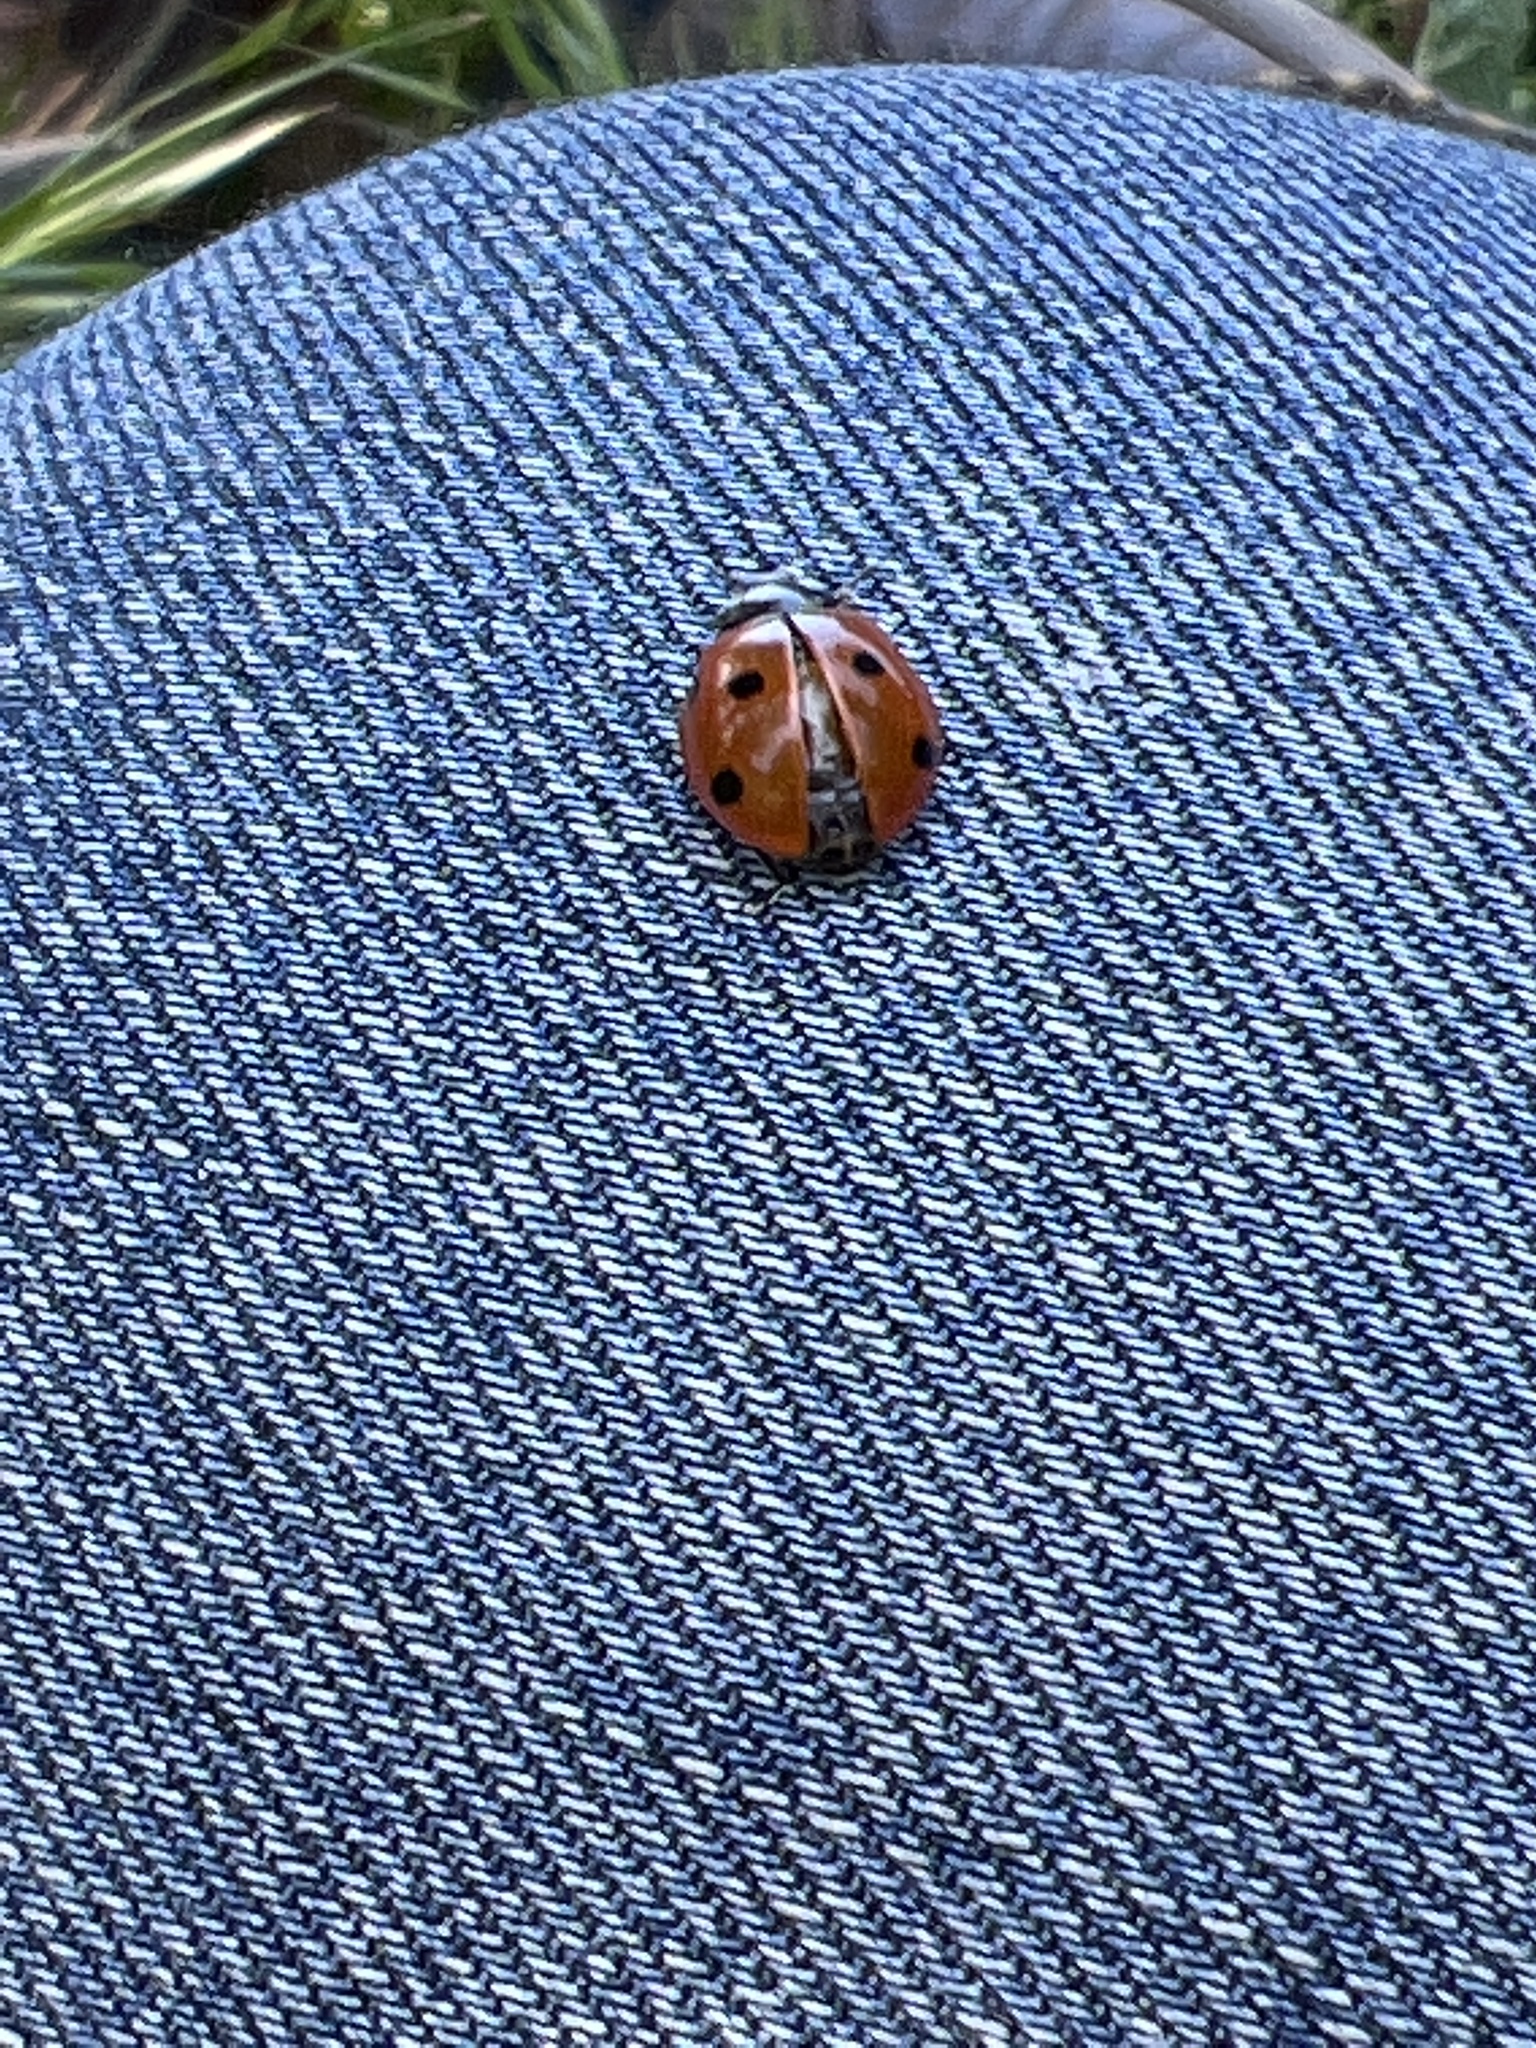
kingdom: Animalia
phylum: Arthropoda
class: Insecta
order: Coleoptera
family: Coccinellidae
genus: Coccinella
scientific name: Coccinella septempunctata
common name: Sevenspotted lady beetle
